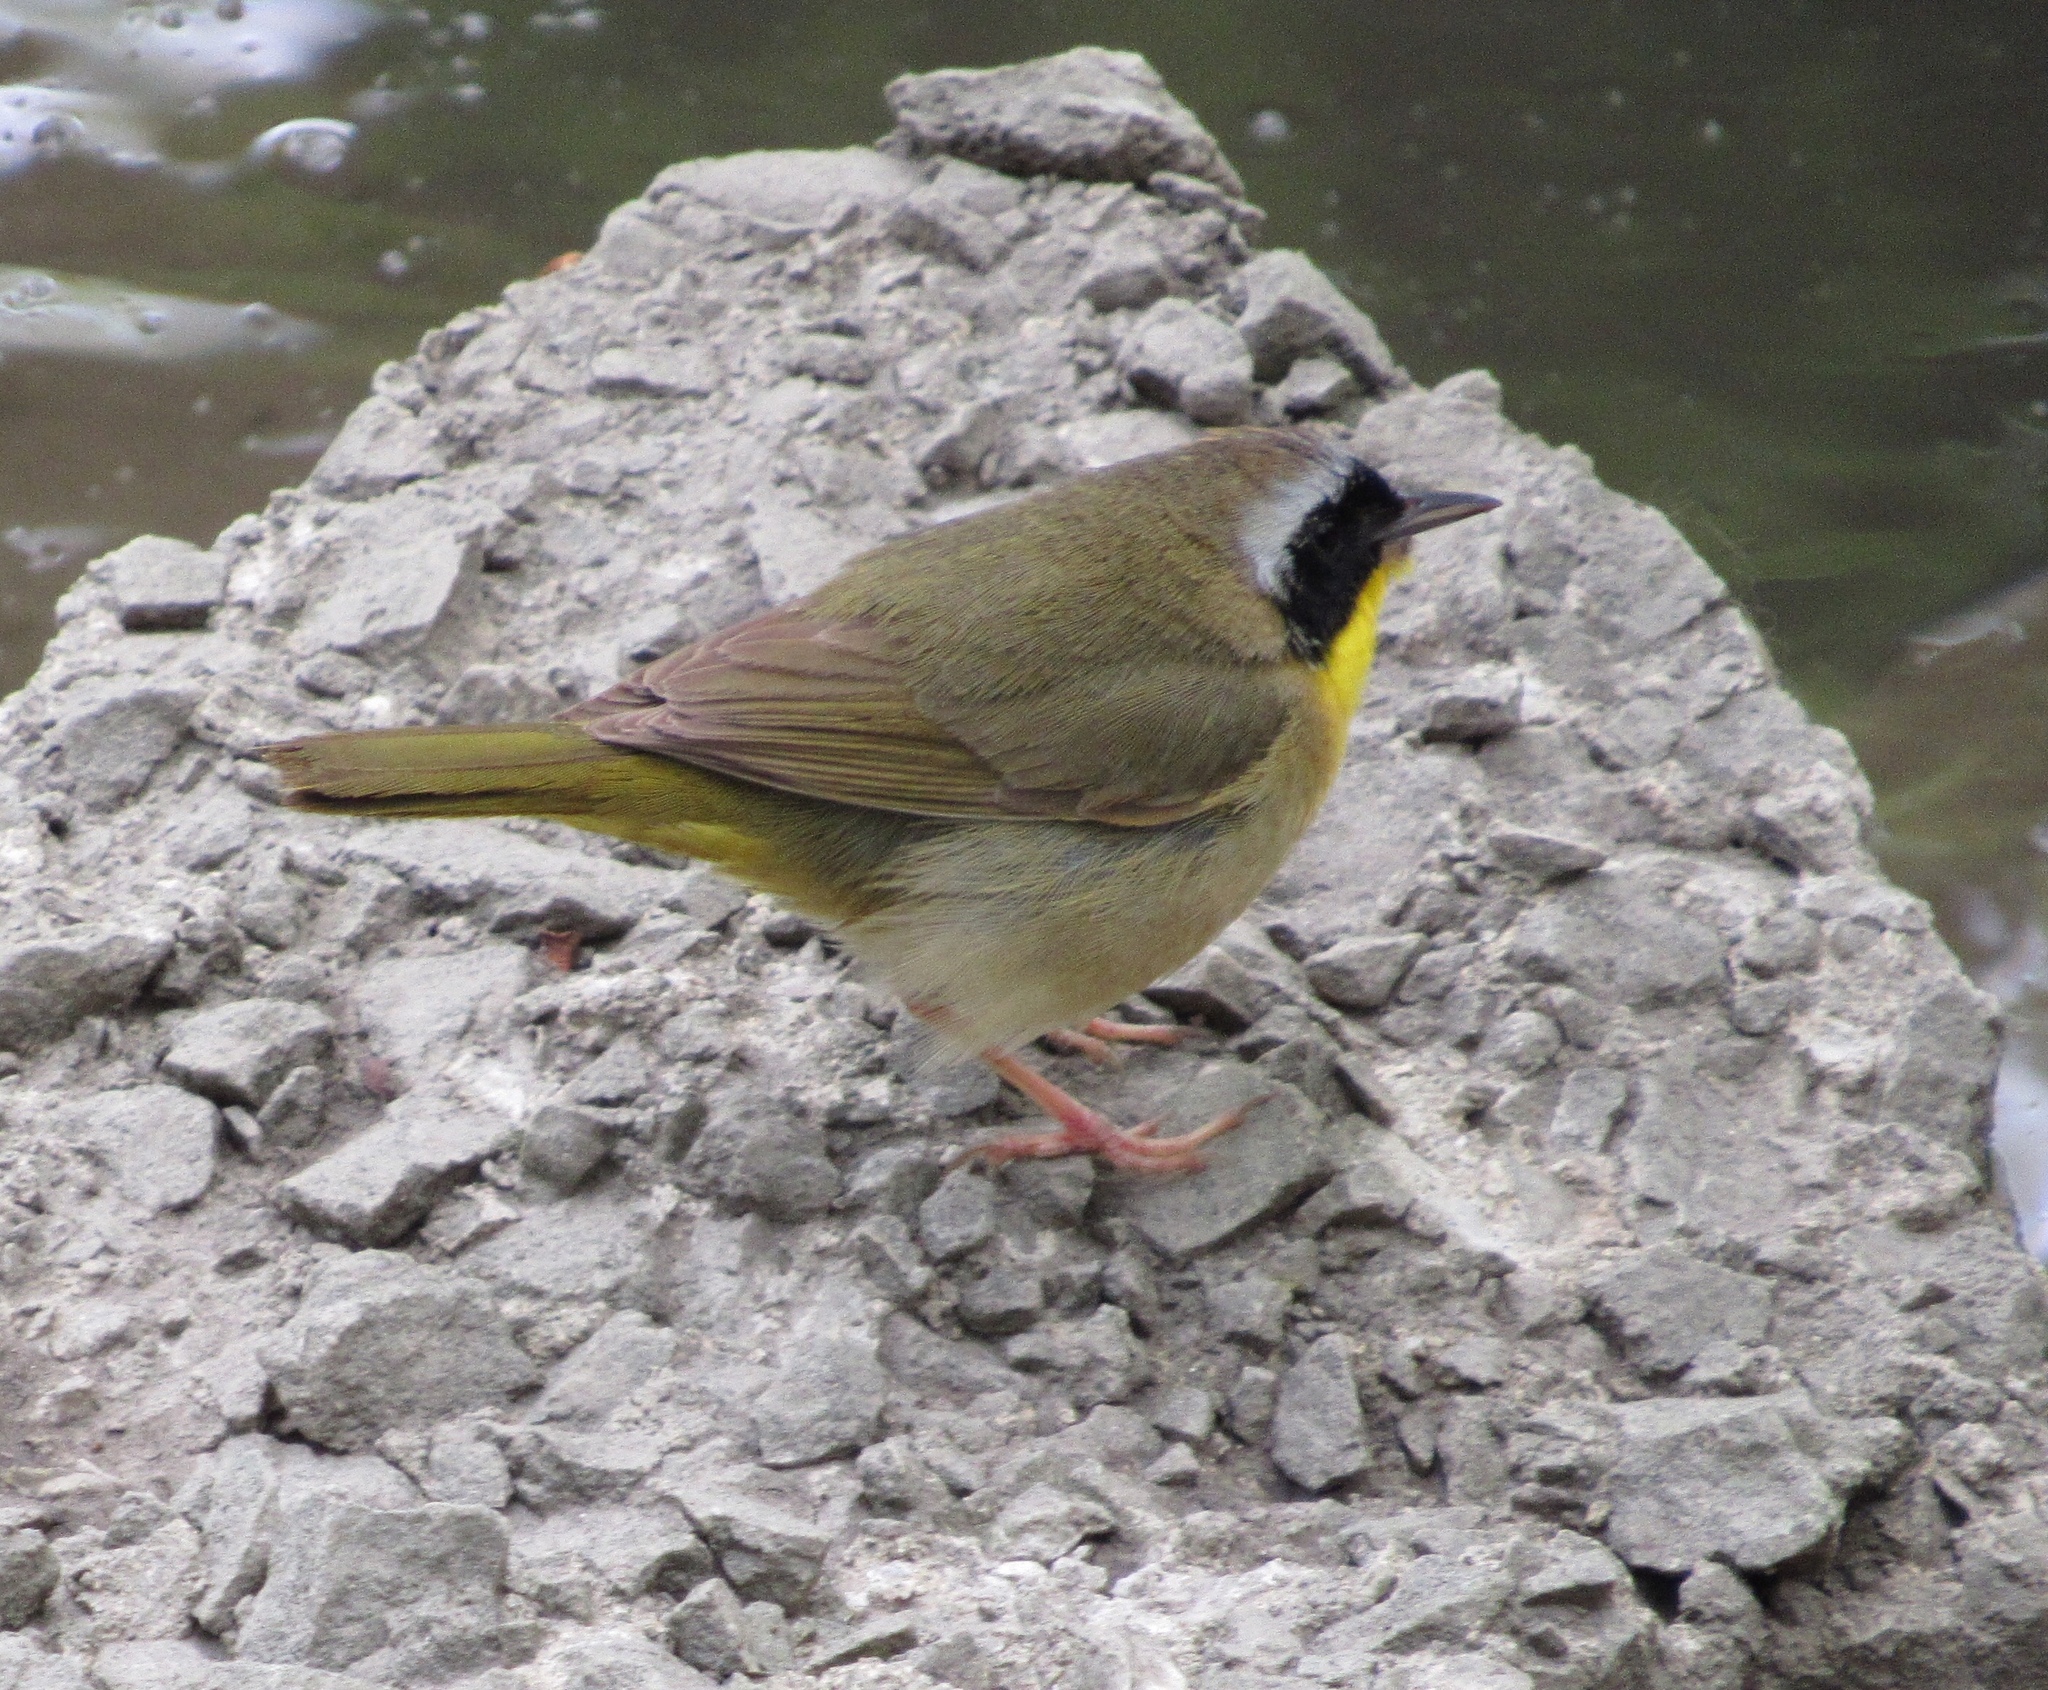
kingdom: Animalia
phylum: Chordata
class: Aves
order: Passeriformes
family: Parulidae
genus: Geothlypis
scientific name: Geothlypis trichas
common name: Common yellowthroat
